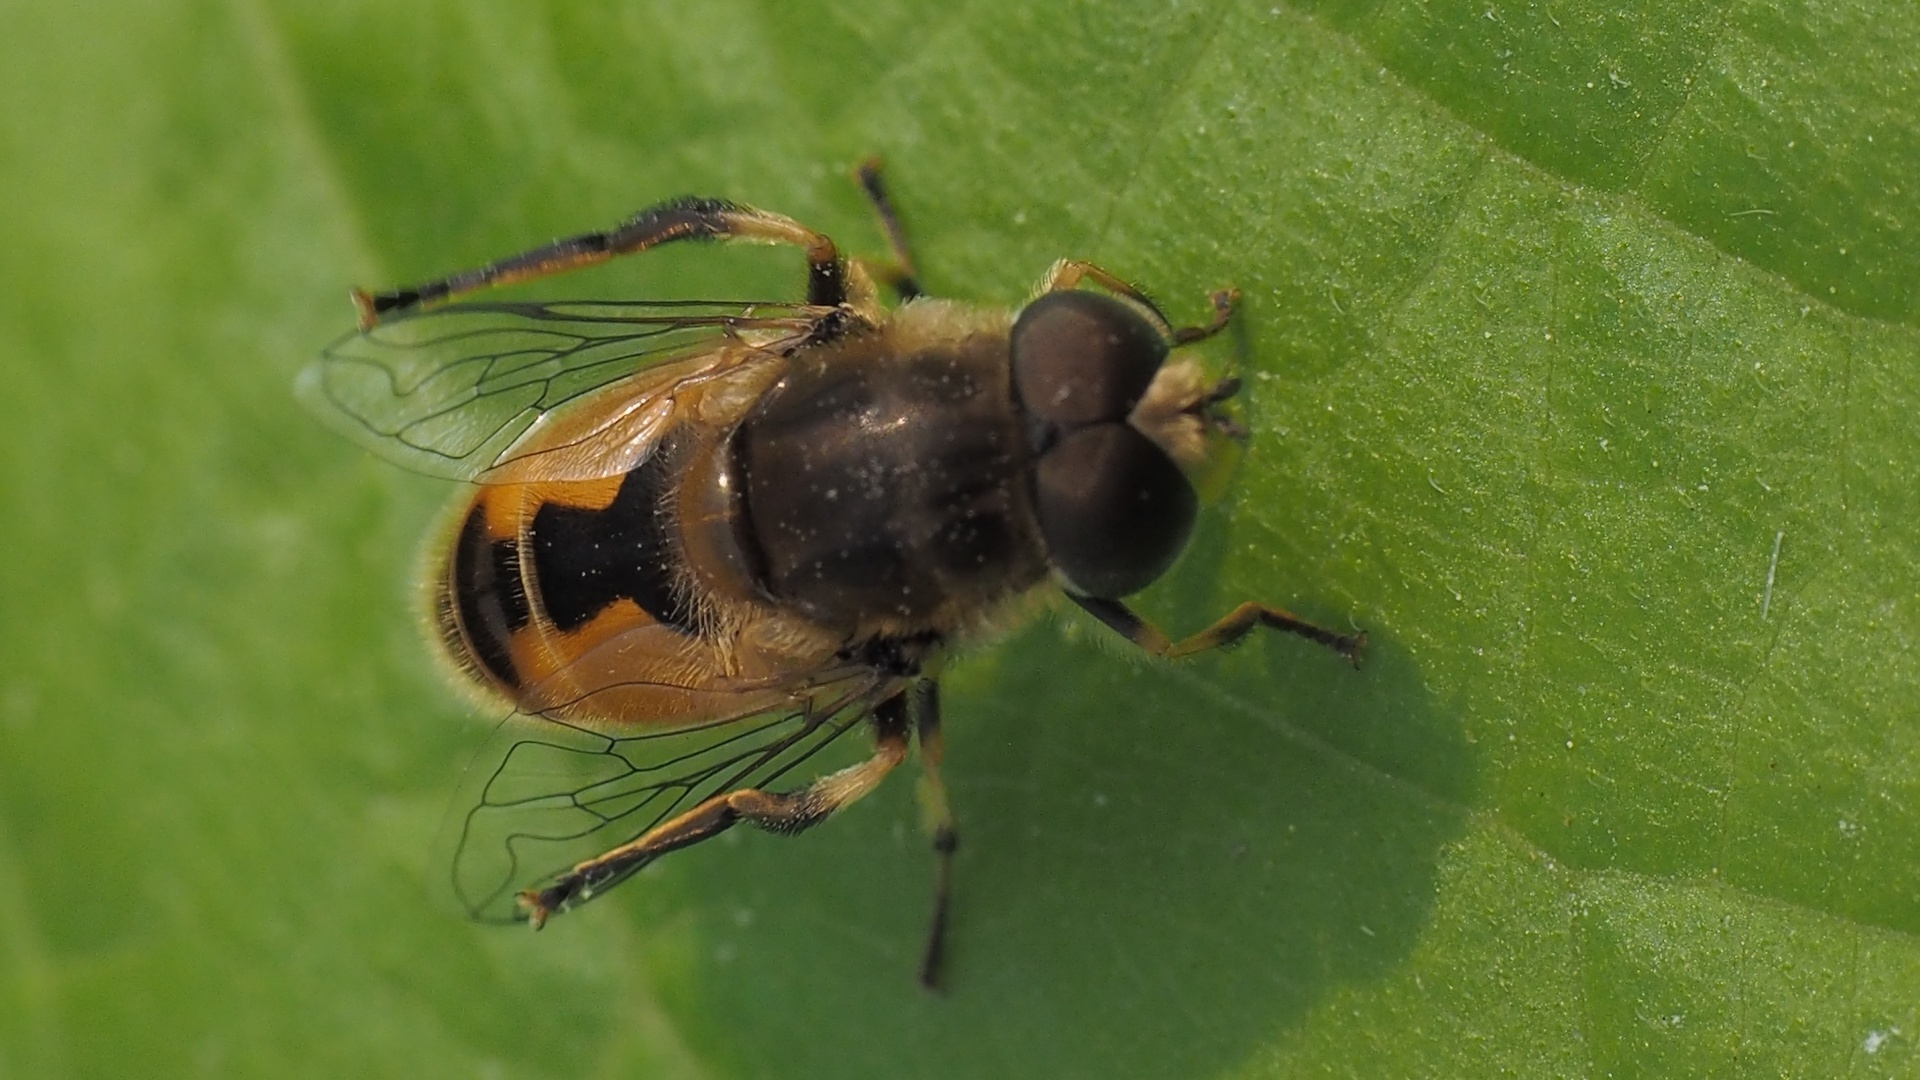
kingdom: Animalia
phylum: Arthropoda
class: Insecta
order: Diptera
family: Syrphidae
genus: Eristalis
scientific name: Eristalis arbustorum
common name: Hover fly
